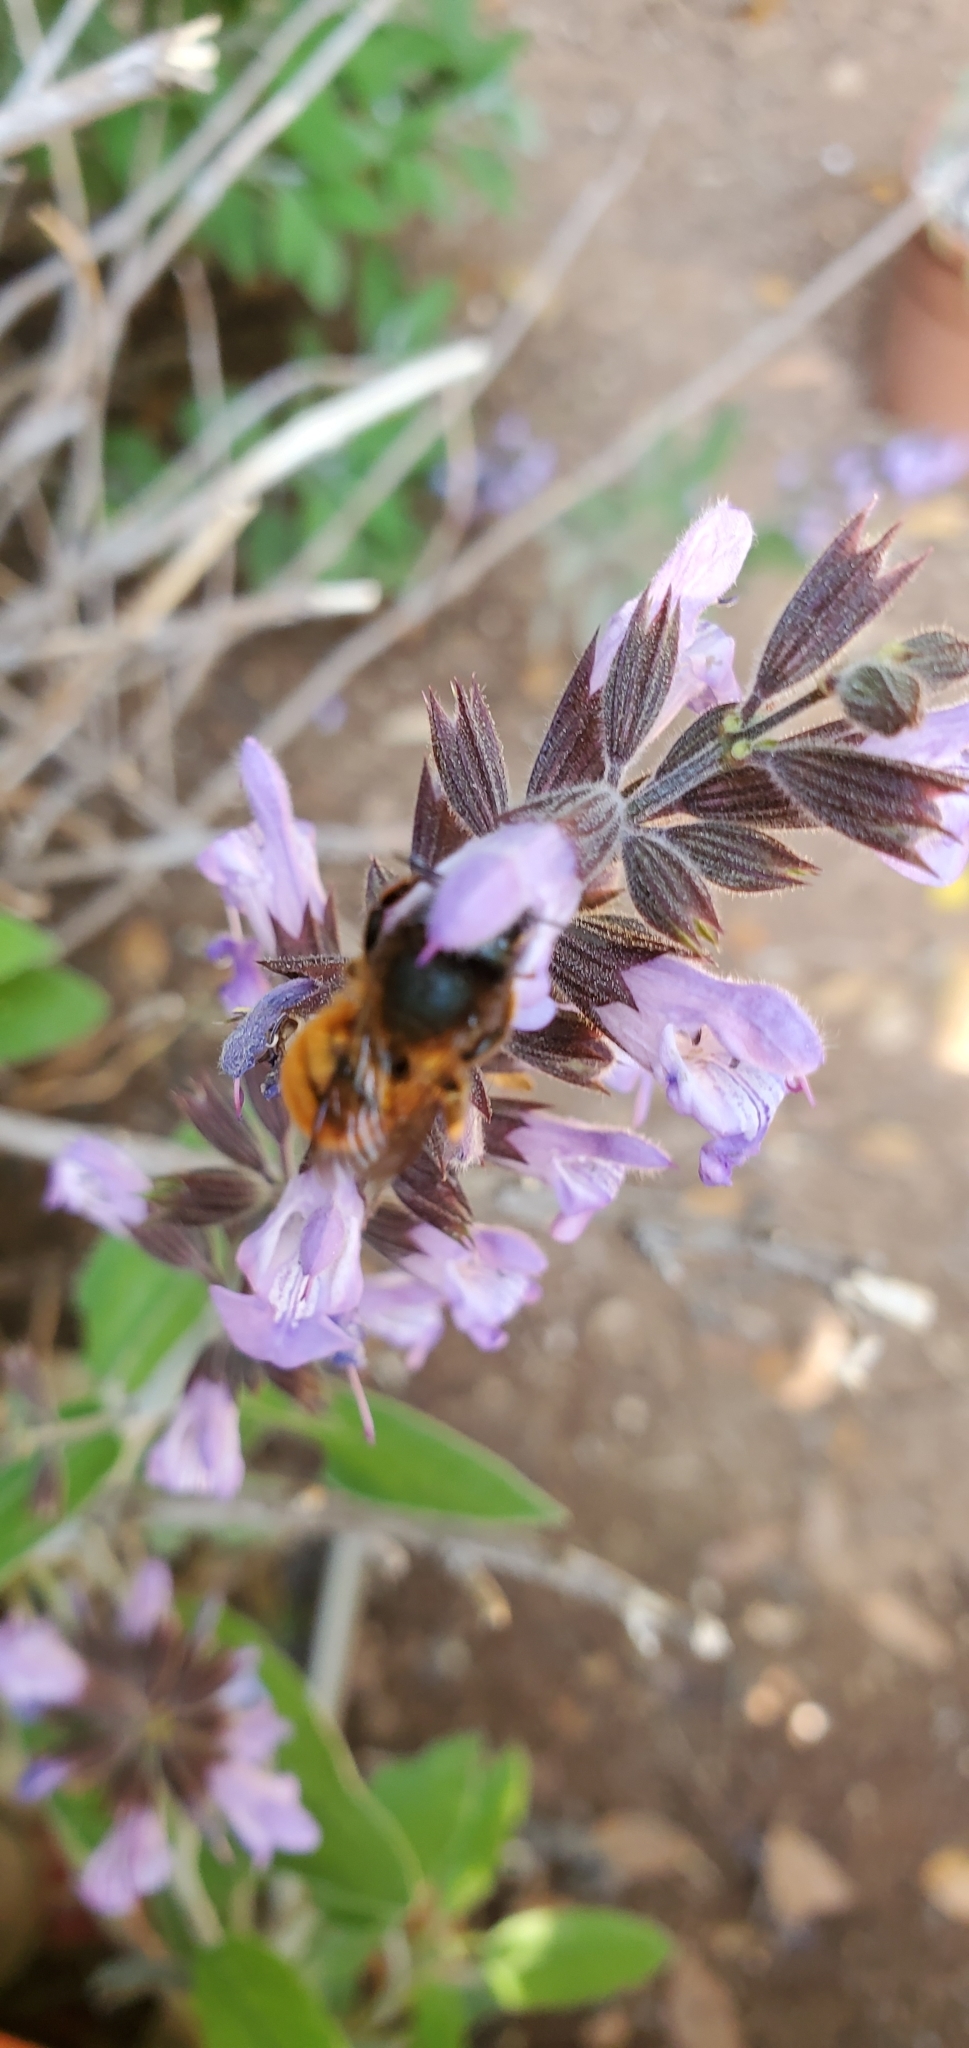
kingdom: Animalia
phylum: Arthropoda
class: Insecta
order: Hymenoptera
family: Apidae
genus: Bombus
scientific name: Bombus pascuorum
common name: Common carder bee
